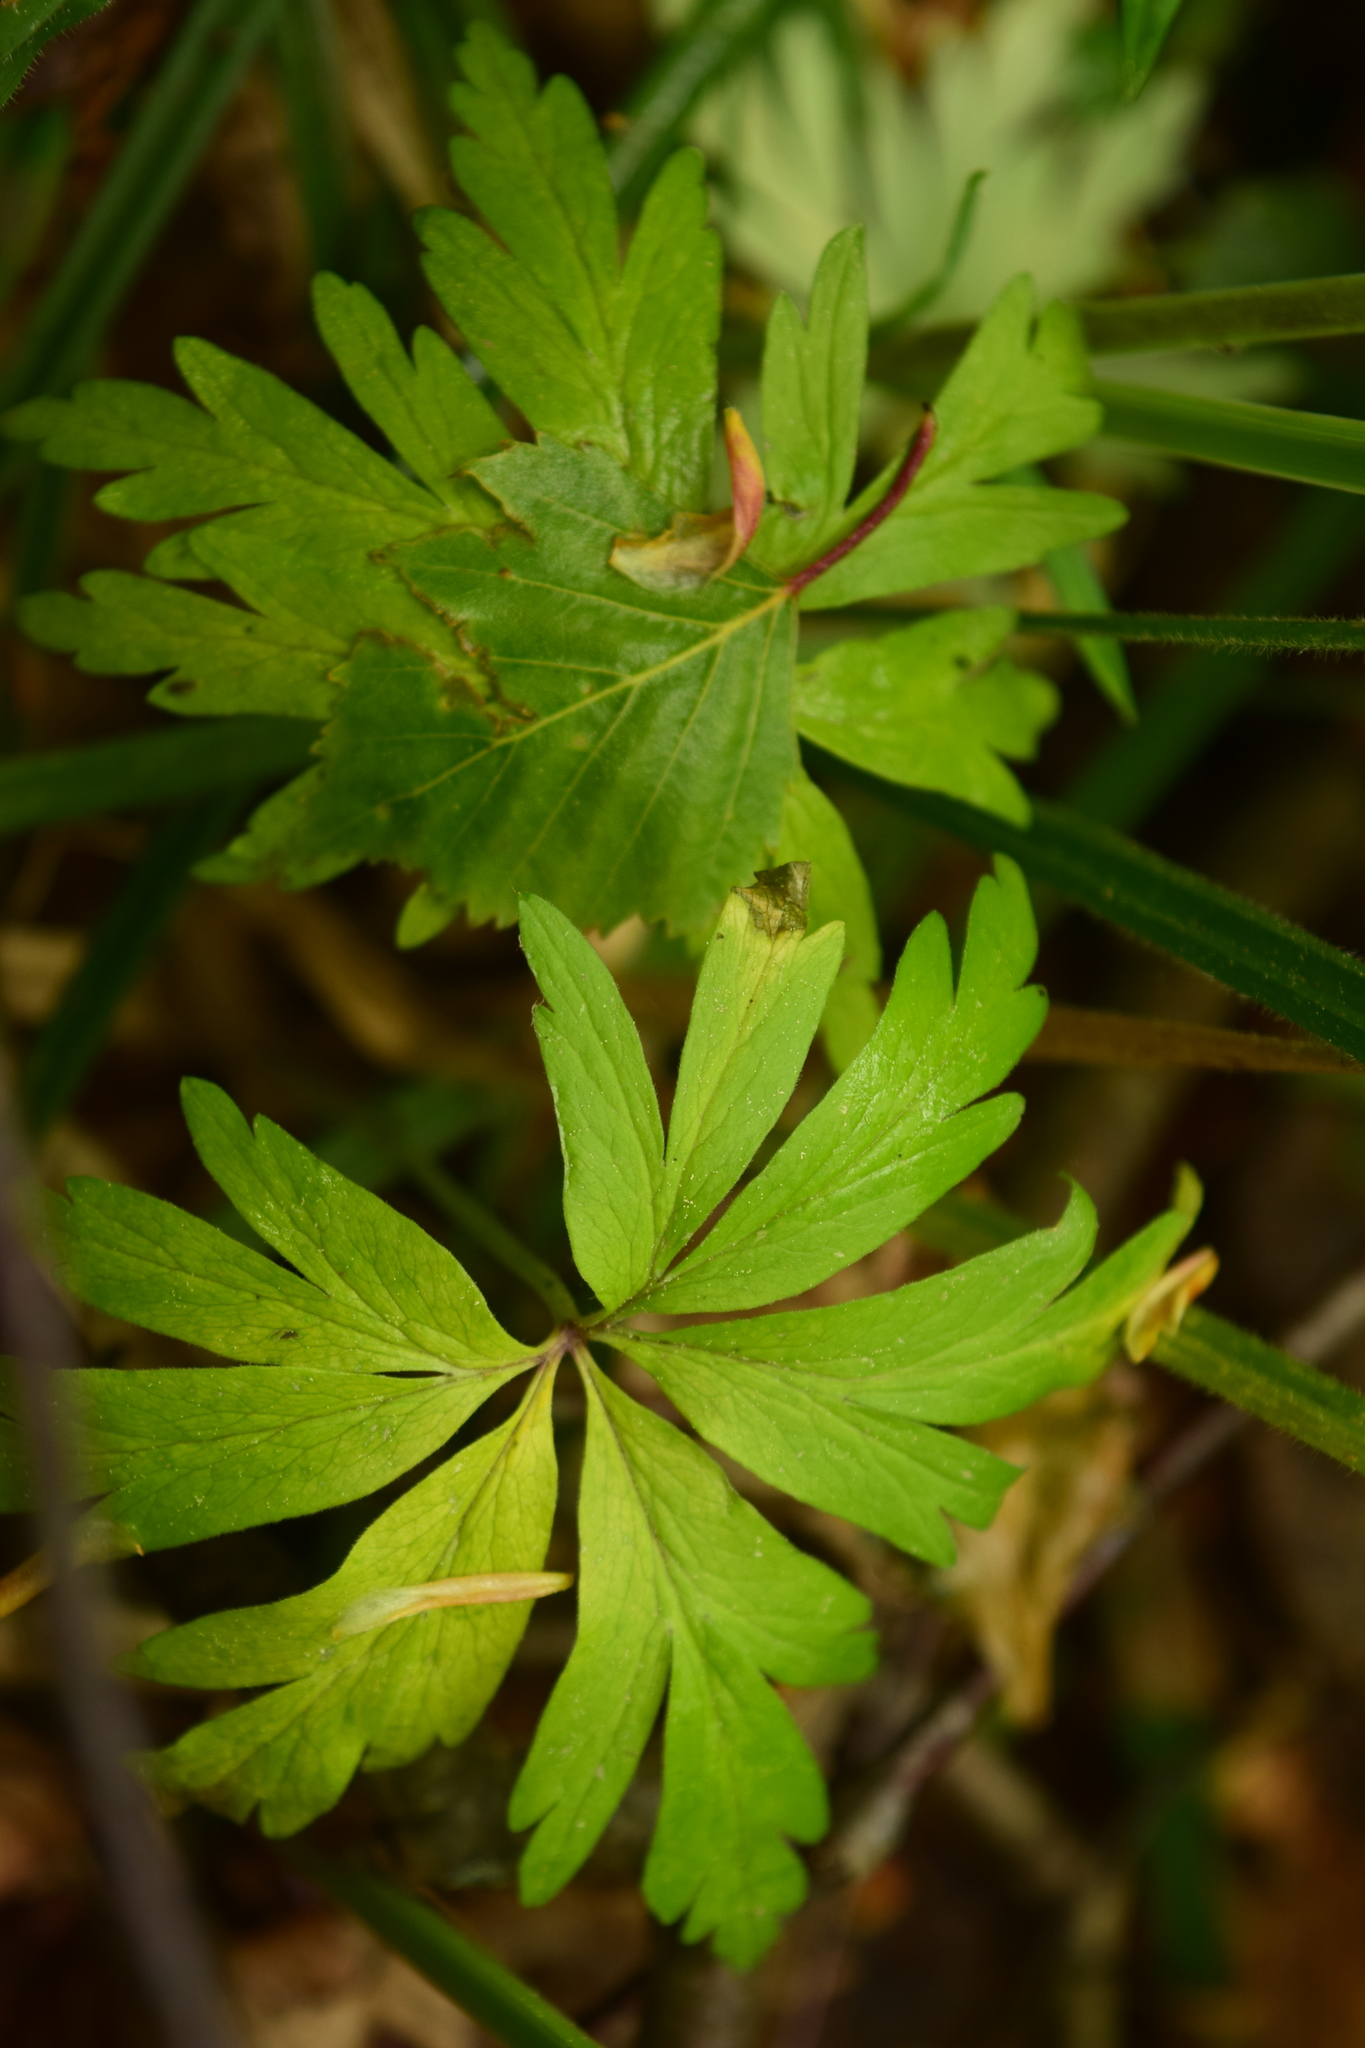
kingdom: Plantae
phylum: Tracheophyta
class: Magnoliopsida
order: Ranunculales
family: Ranunculaceae
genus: Anemone
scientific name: Anemone ranunculoides
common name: Yellow anemone
